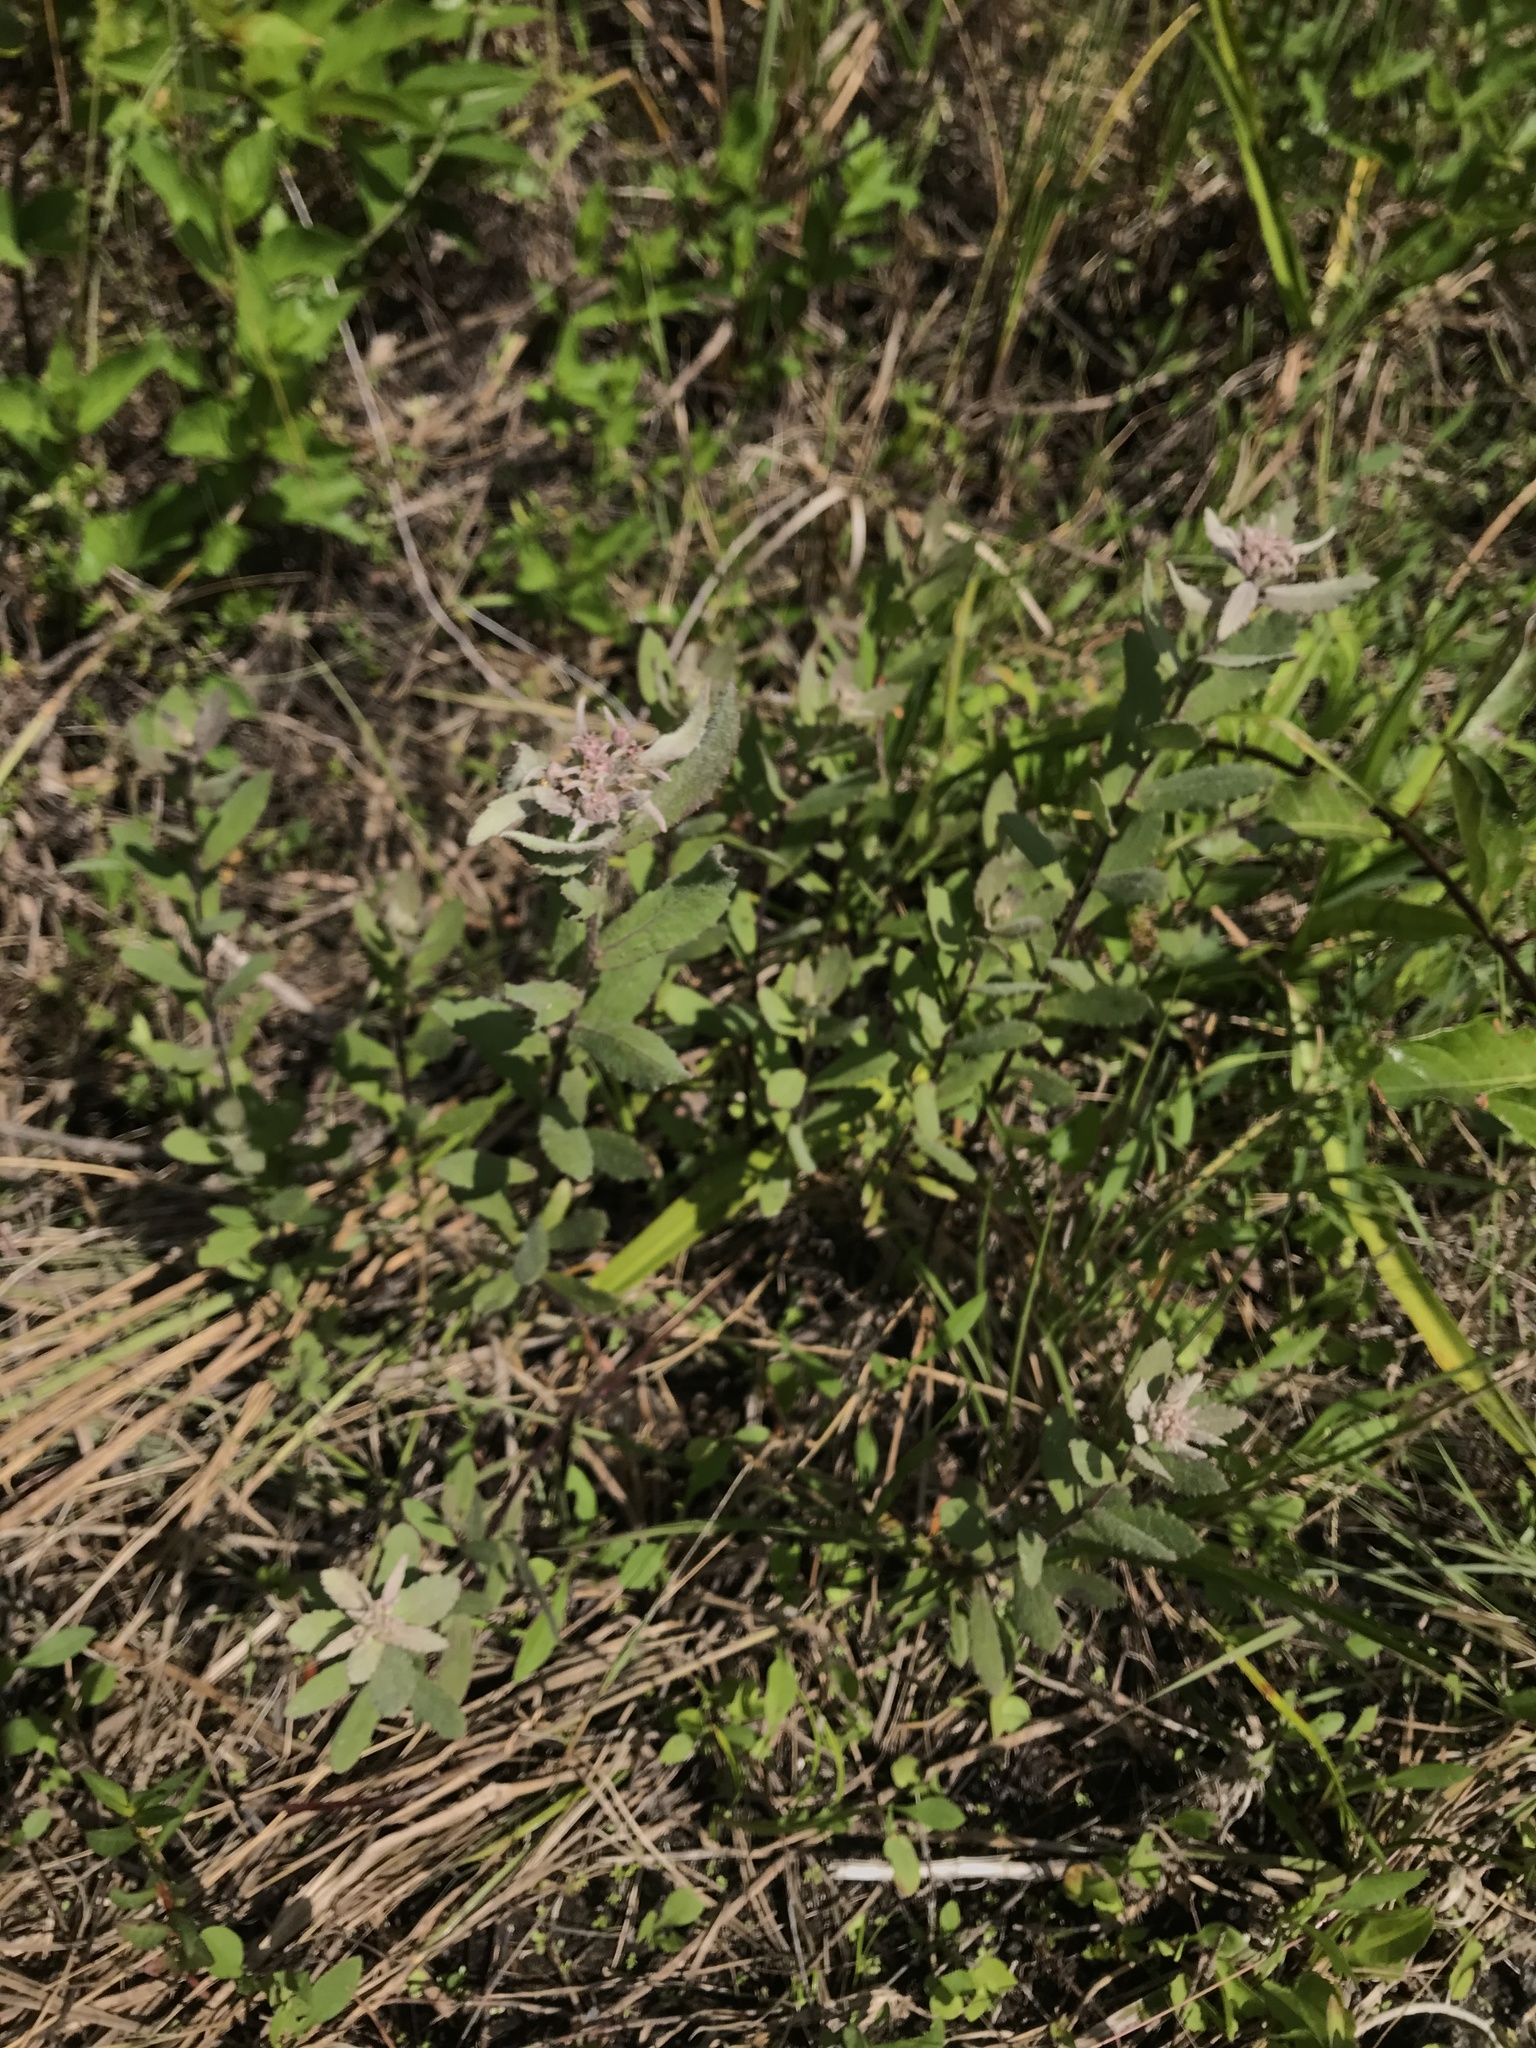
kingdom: Plantae
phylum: Tracheophyta
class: Magnoliopsida
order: Asterales
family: Asteraceae
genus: Pluchea
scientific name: Pluchea baccharis
